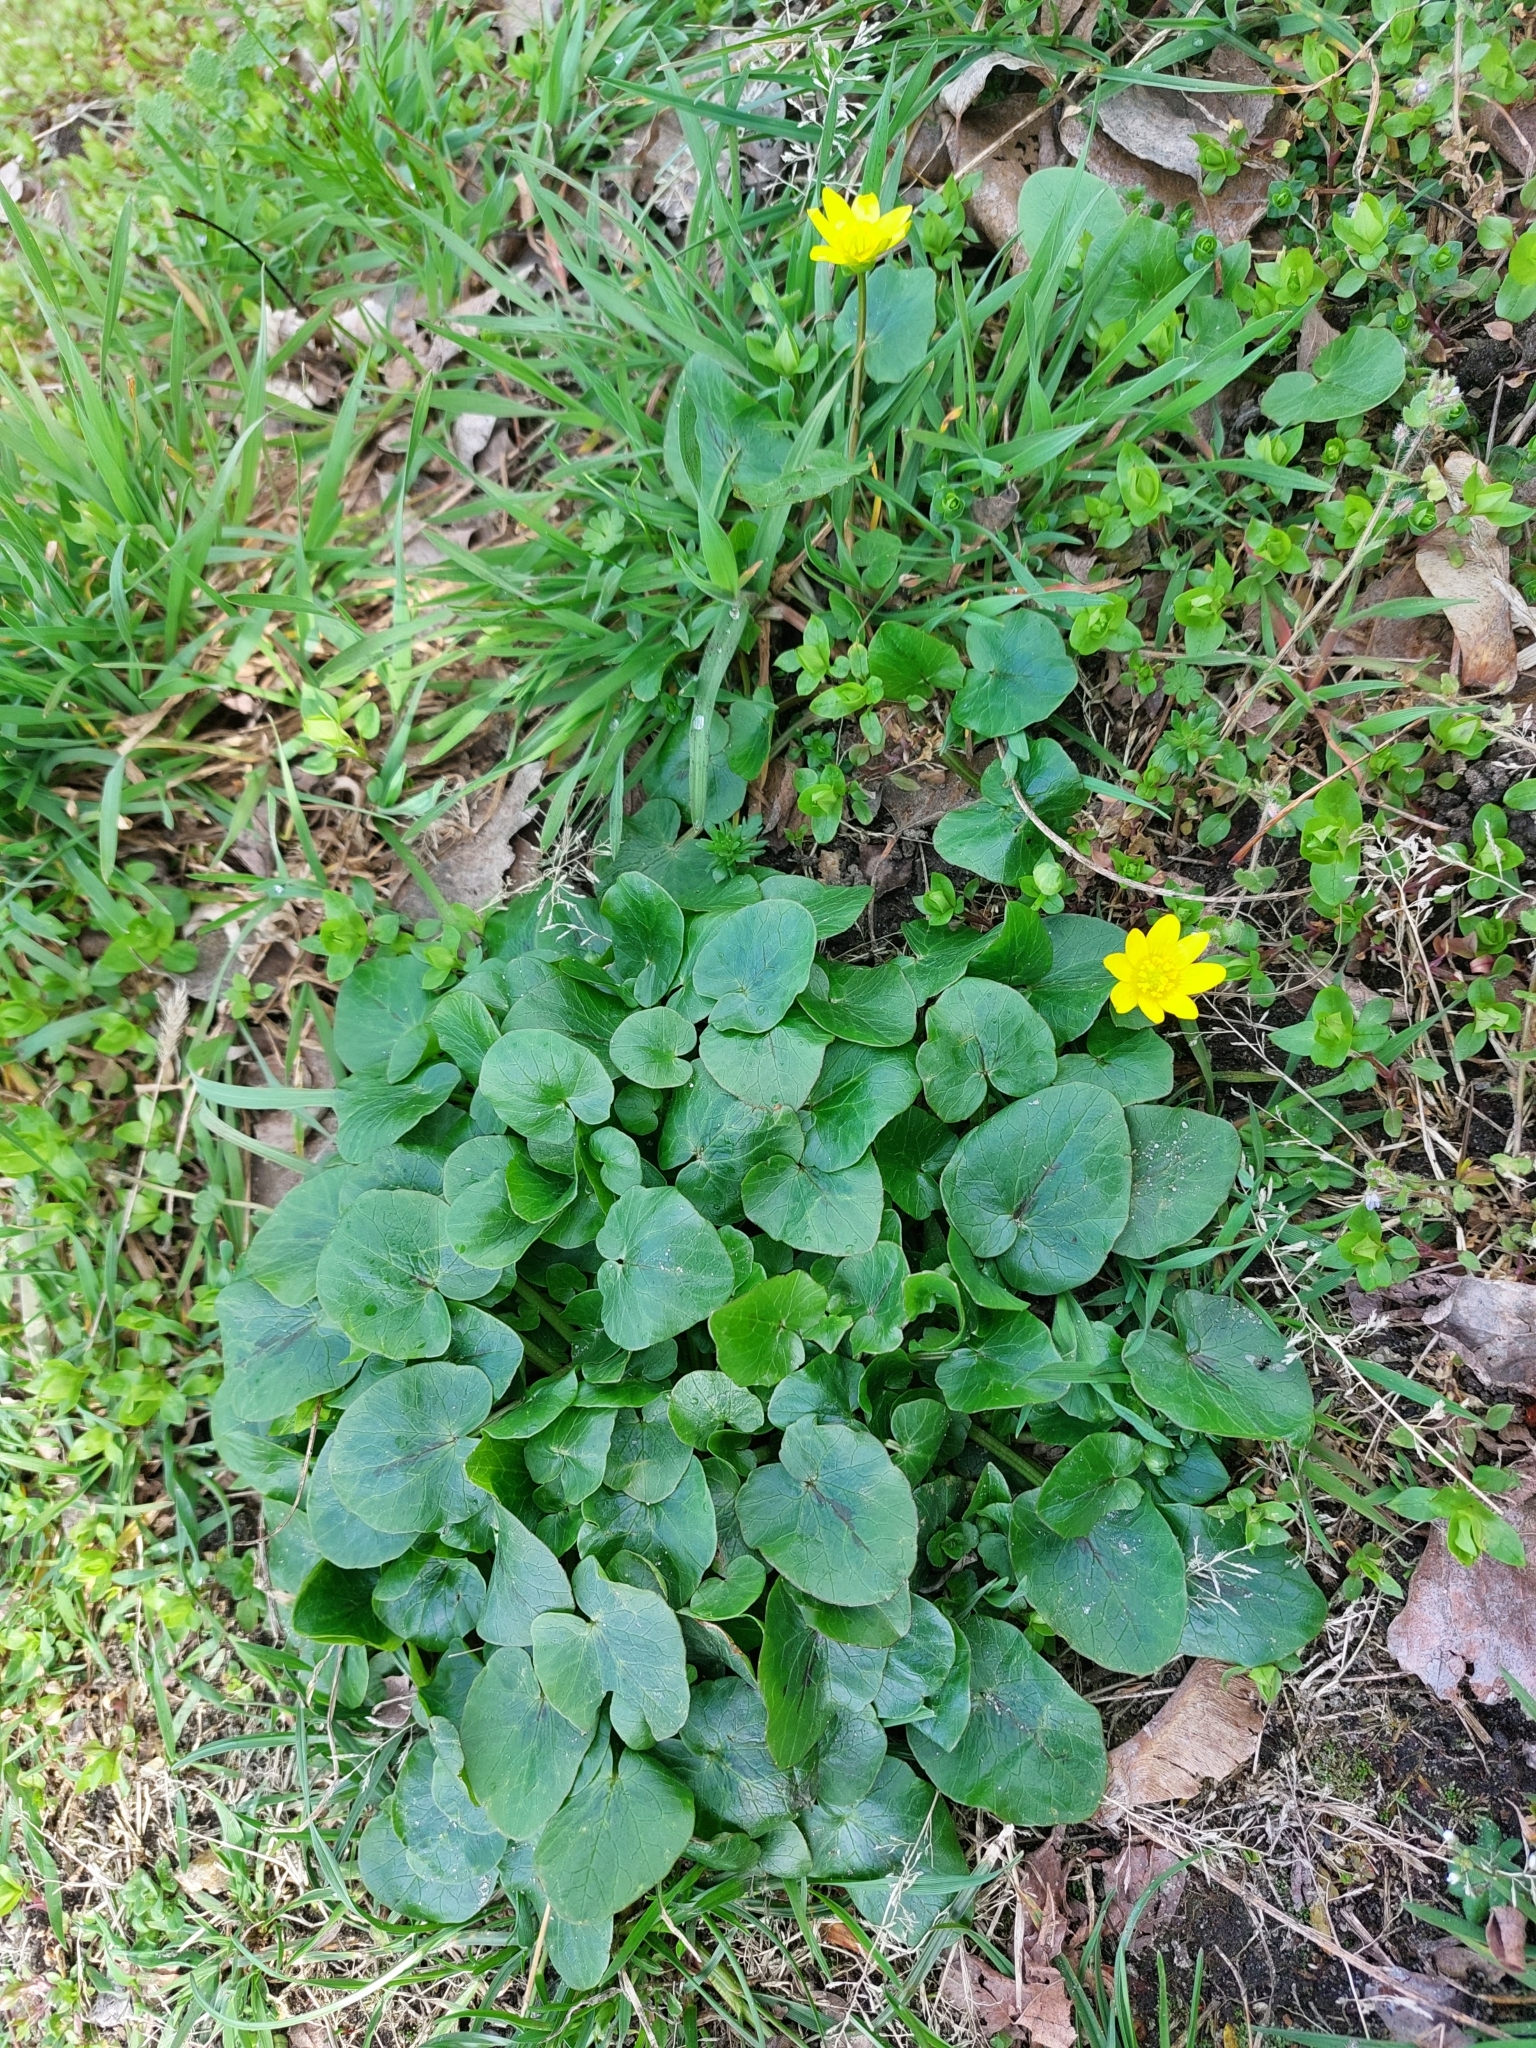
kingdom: Plantae
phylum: Tracheophyta
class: Magnoliopsida
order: Ranunculales
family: Ranunculaceae
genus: Ficaria
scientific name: Ficaria verna
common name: Lesser celandine
